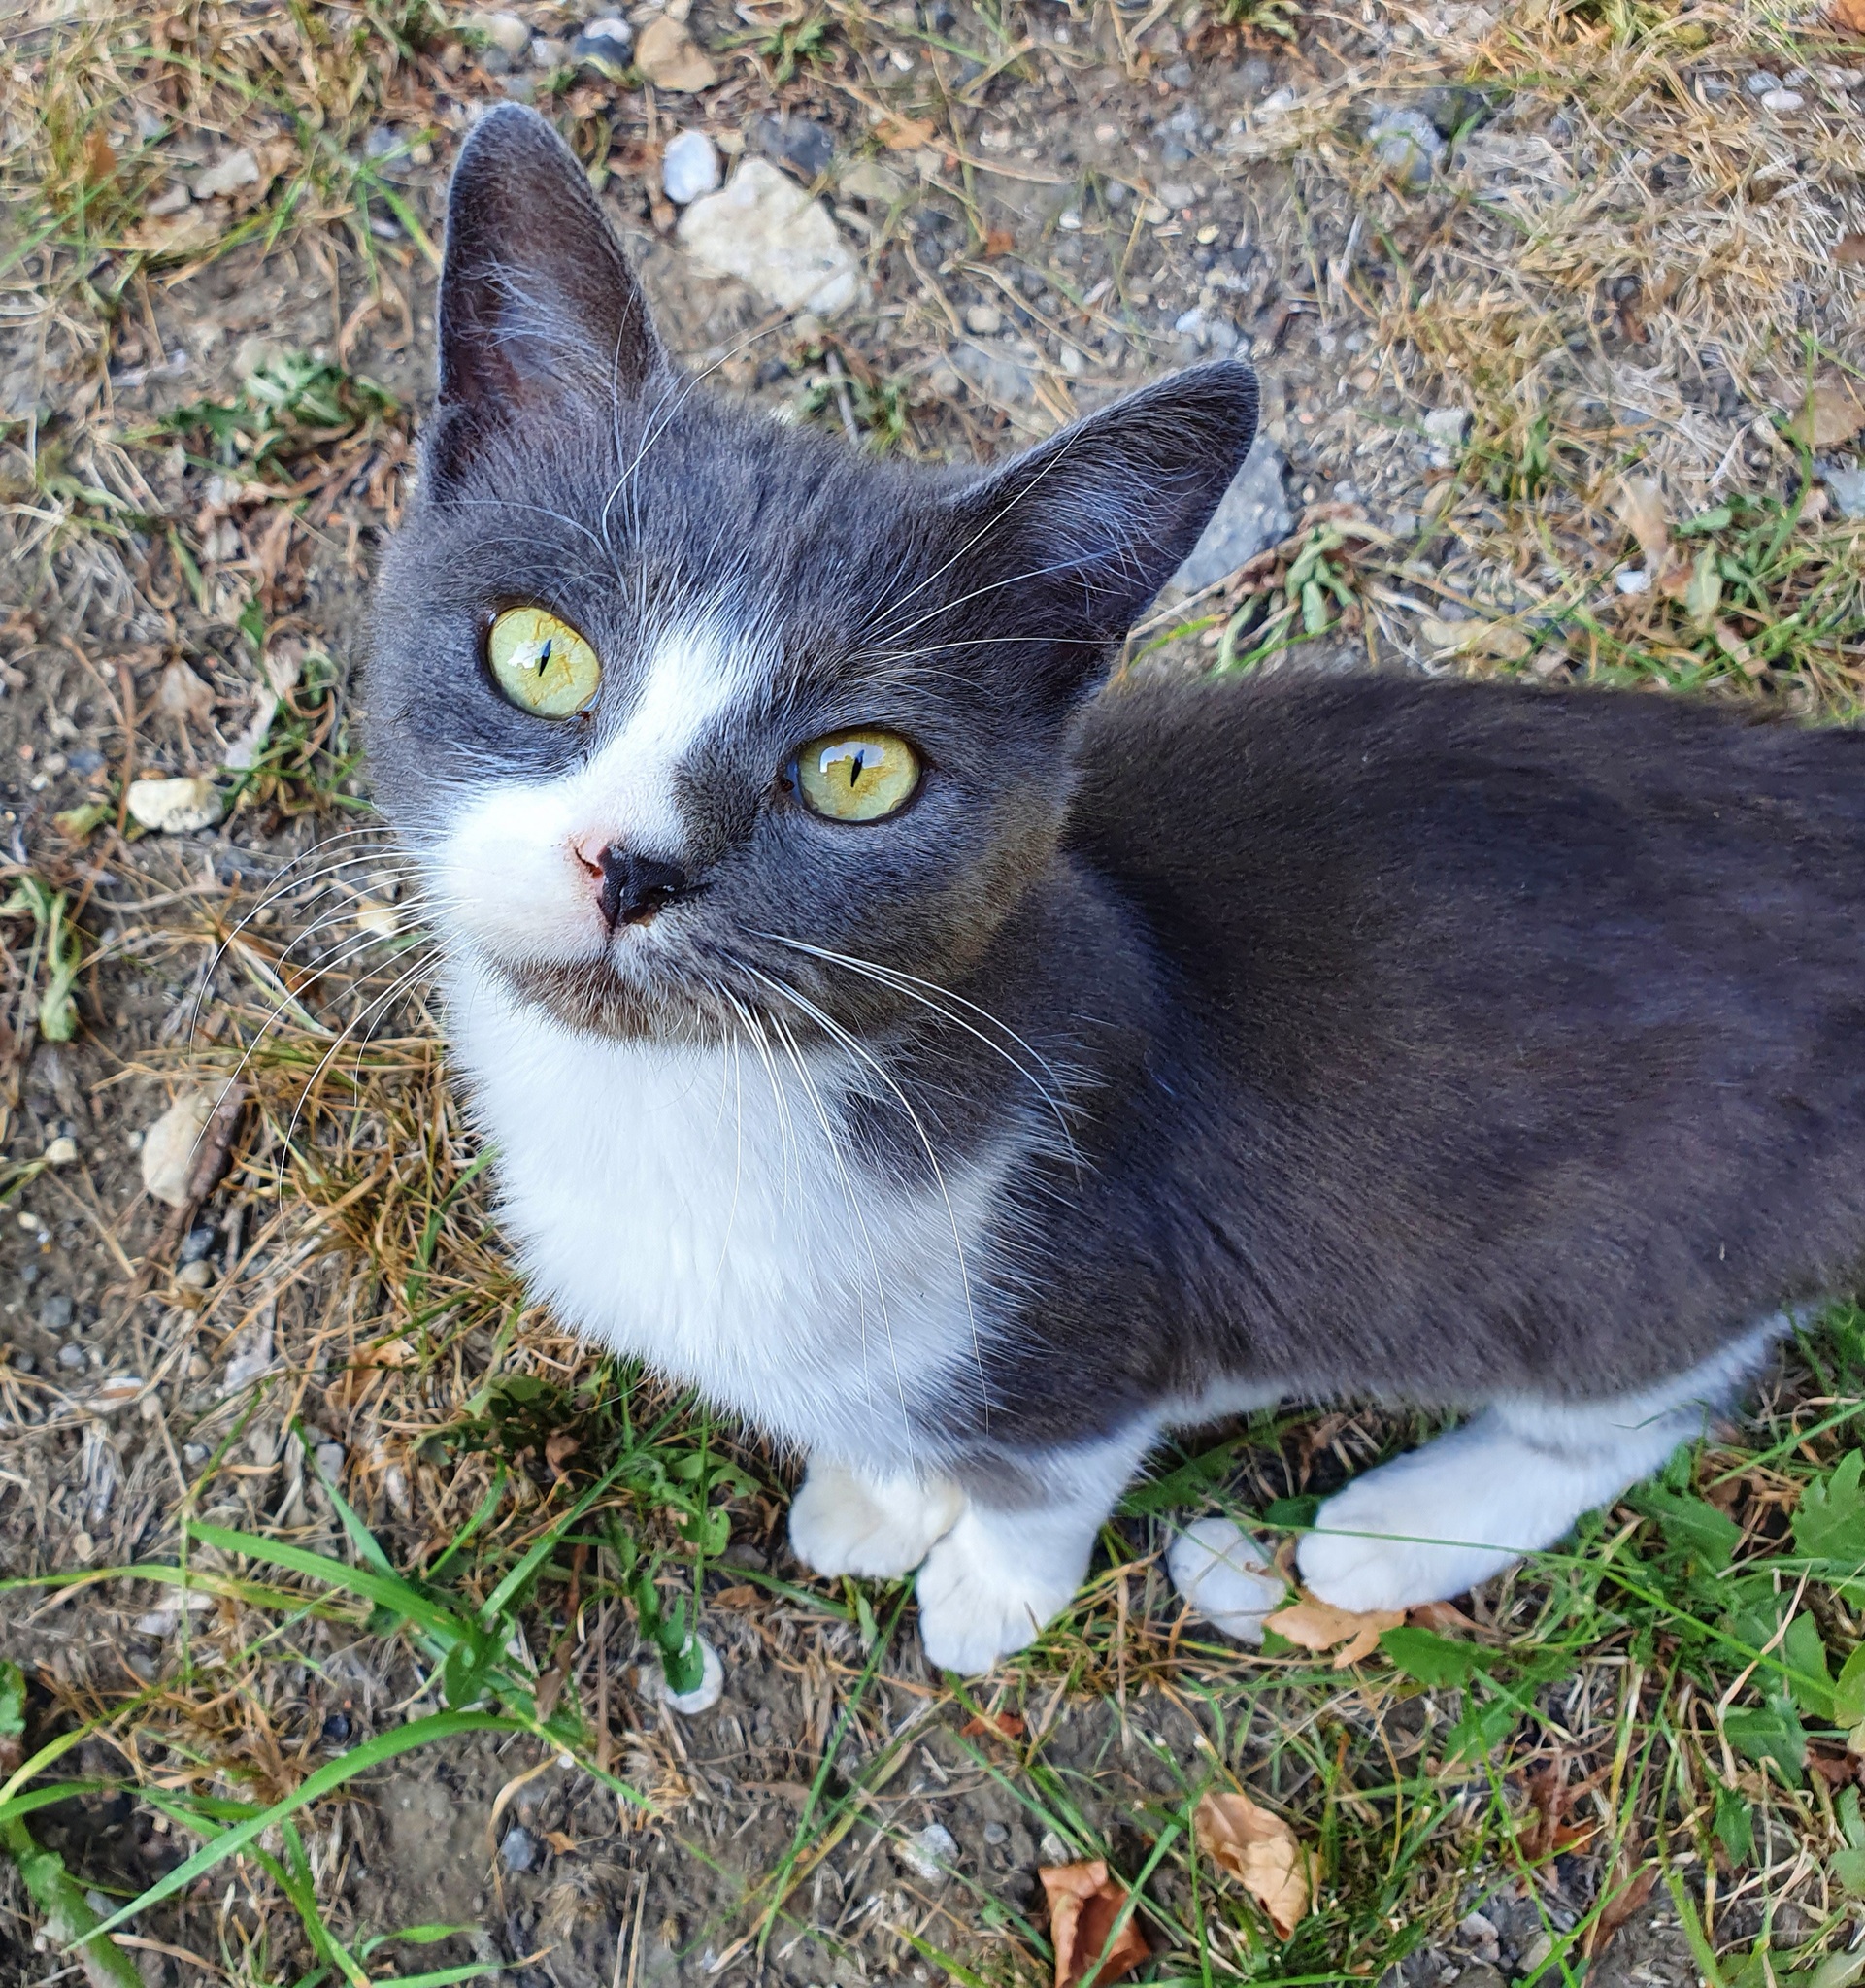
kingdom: Animalia
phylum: Chordata
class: Mammalia
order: Carnivora
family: Felidae
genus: Felis
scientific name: Felis catus
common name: Domestic cat
